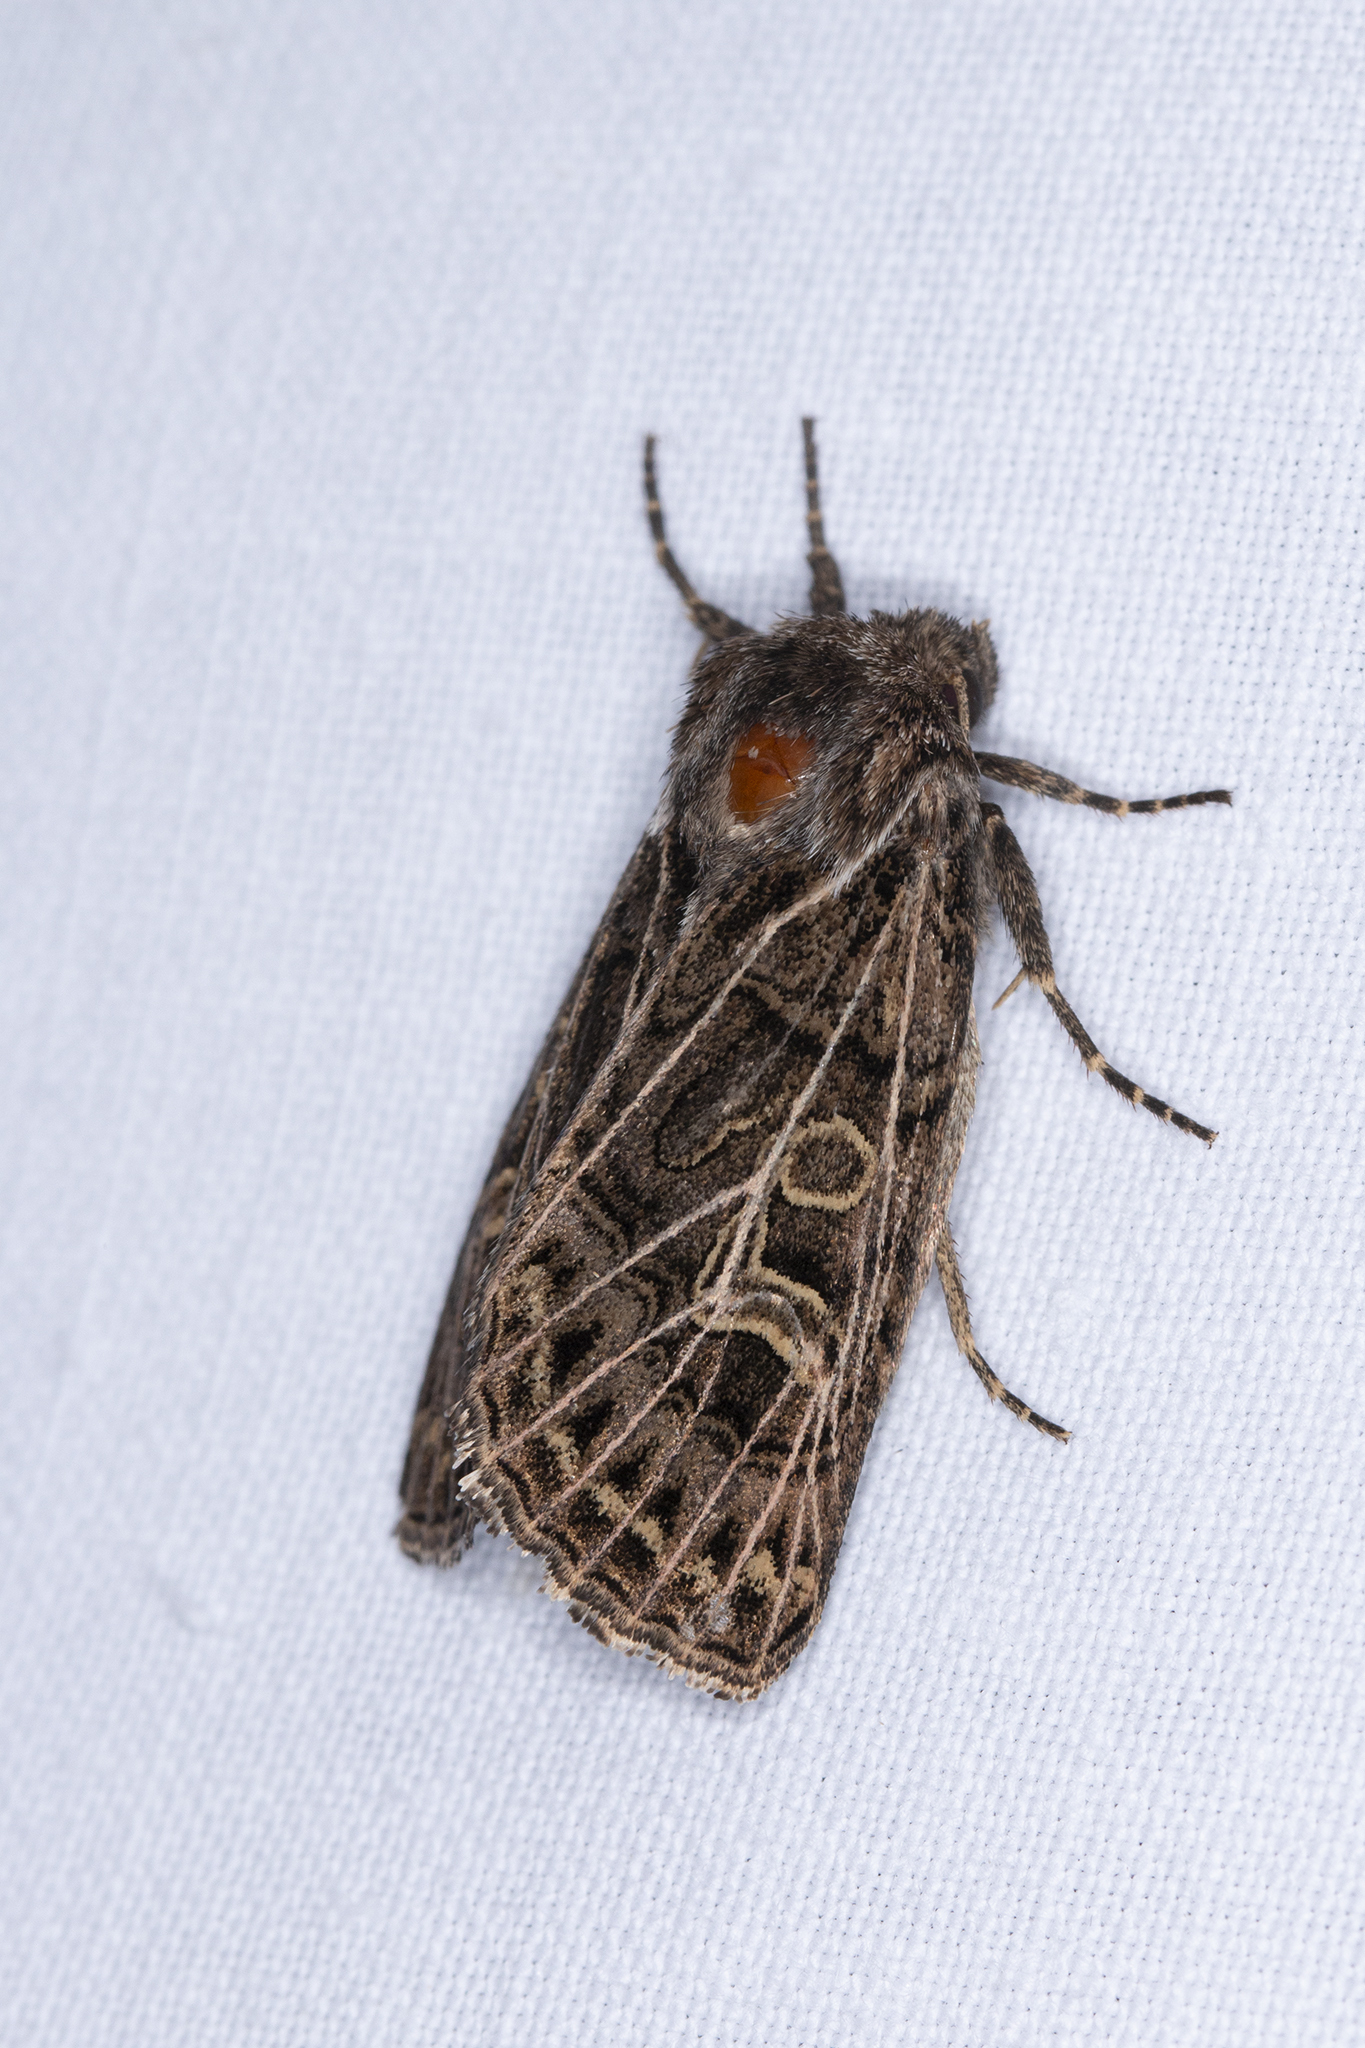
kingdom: Animalia
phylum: Arthropoda
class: Insecta
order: Lepidoptera
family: Noctuidae
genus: Tholera
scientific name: Tholera decimalis
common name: Feathered gothic
